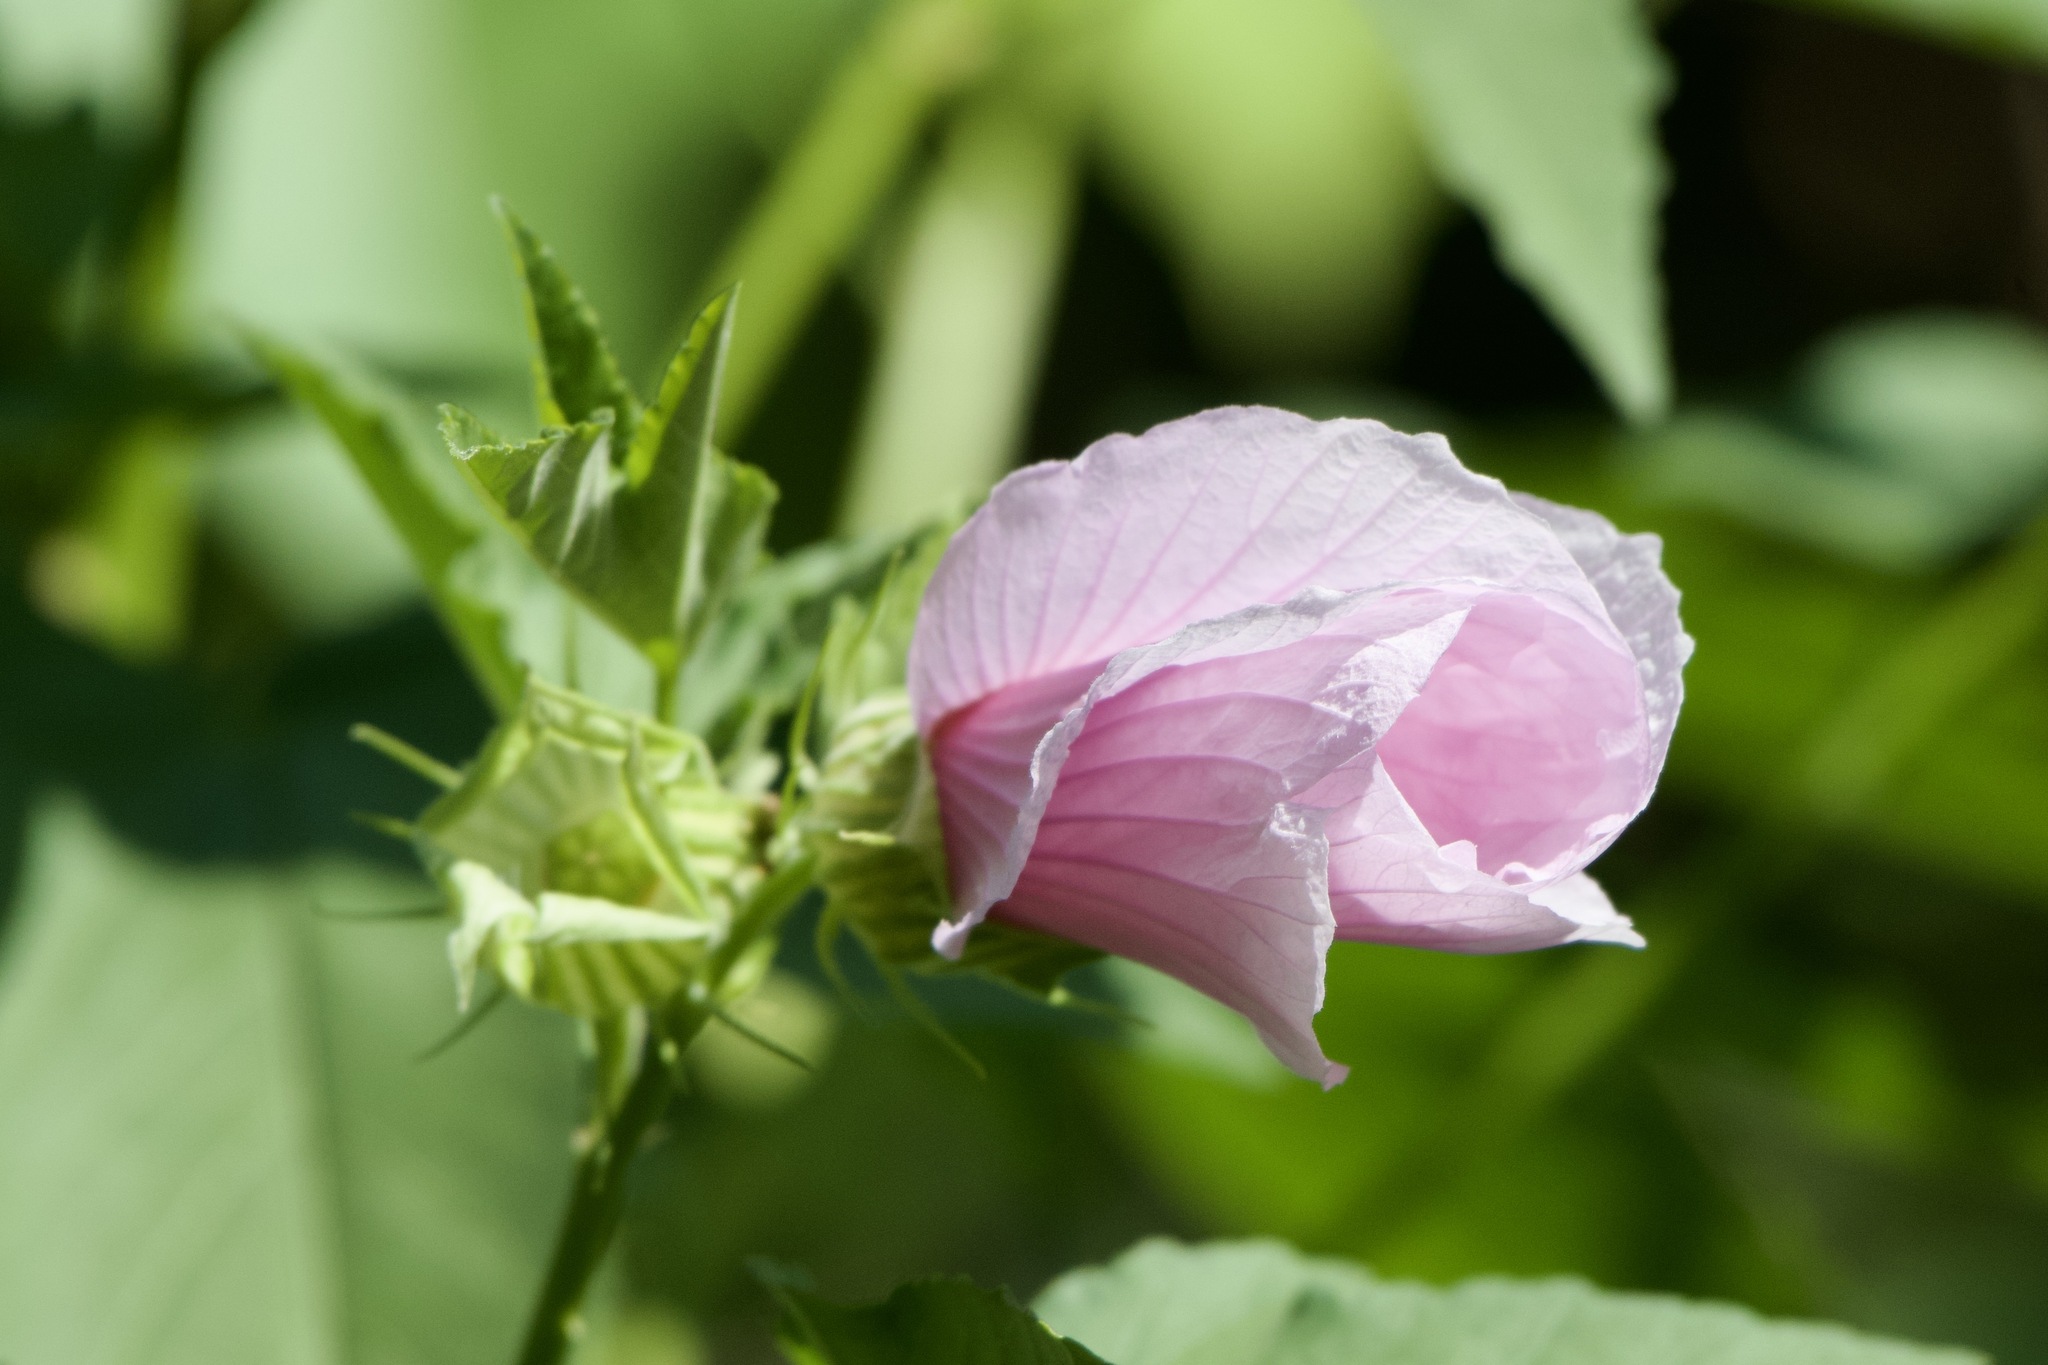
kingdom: Plantae
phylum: Tracheophyta
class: Magnoliopsida
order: Malvales
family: Malvaceae
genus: Hibiscus
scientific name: Hibiscus striatus
